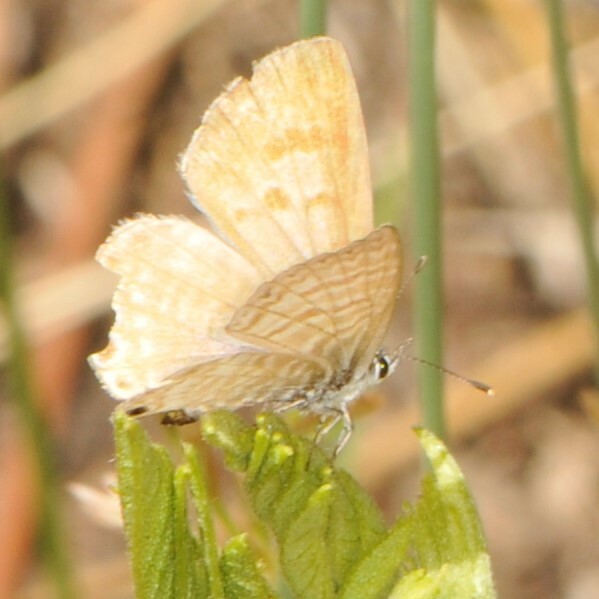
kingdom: Animalia
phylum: Arthropoda
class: Insecta
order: Lepidoptera
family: Lycaenidae
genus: Leptotes
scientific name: Leptotes marina
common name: Marine blue
